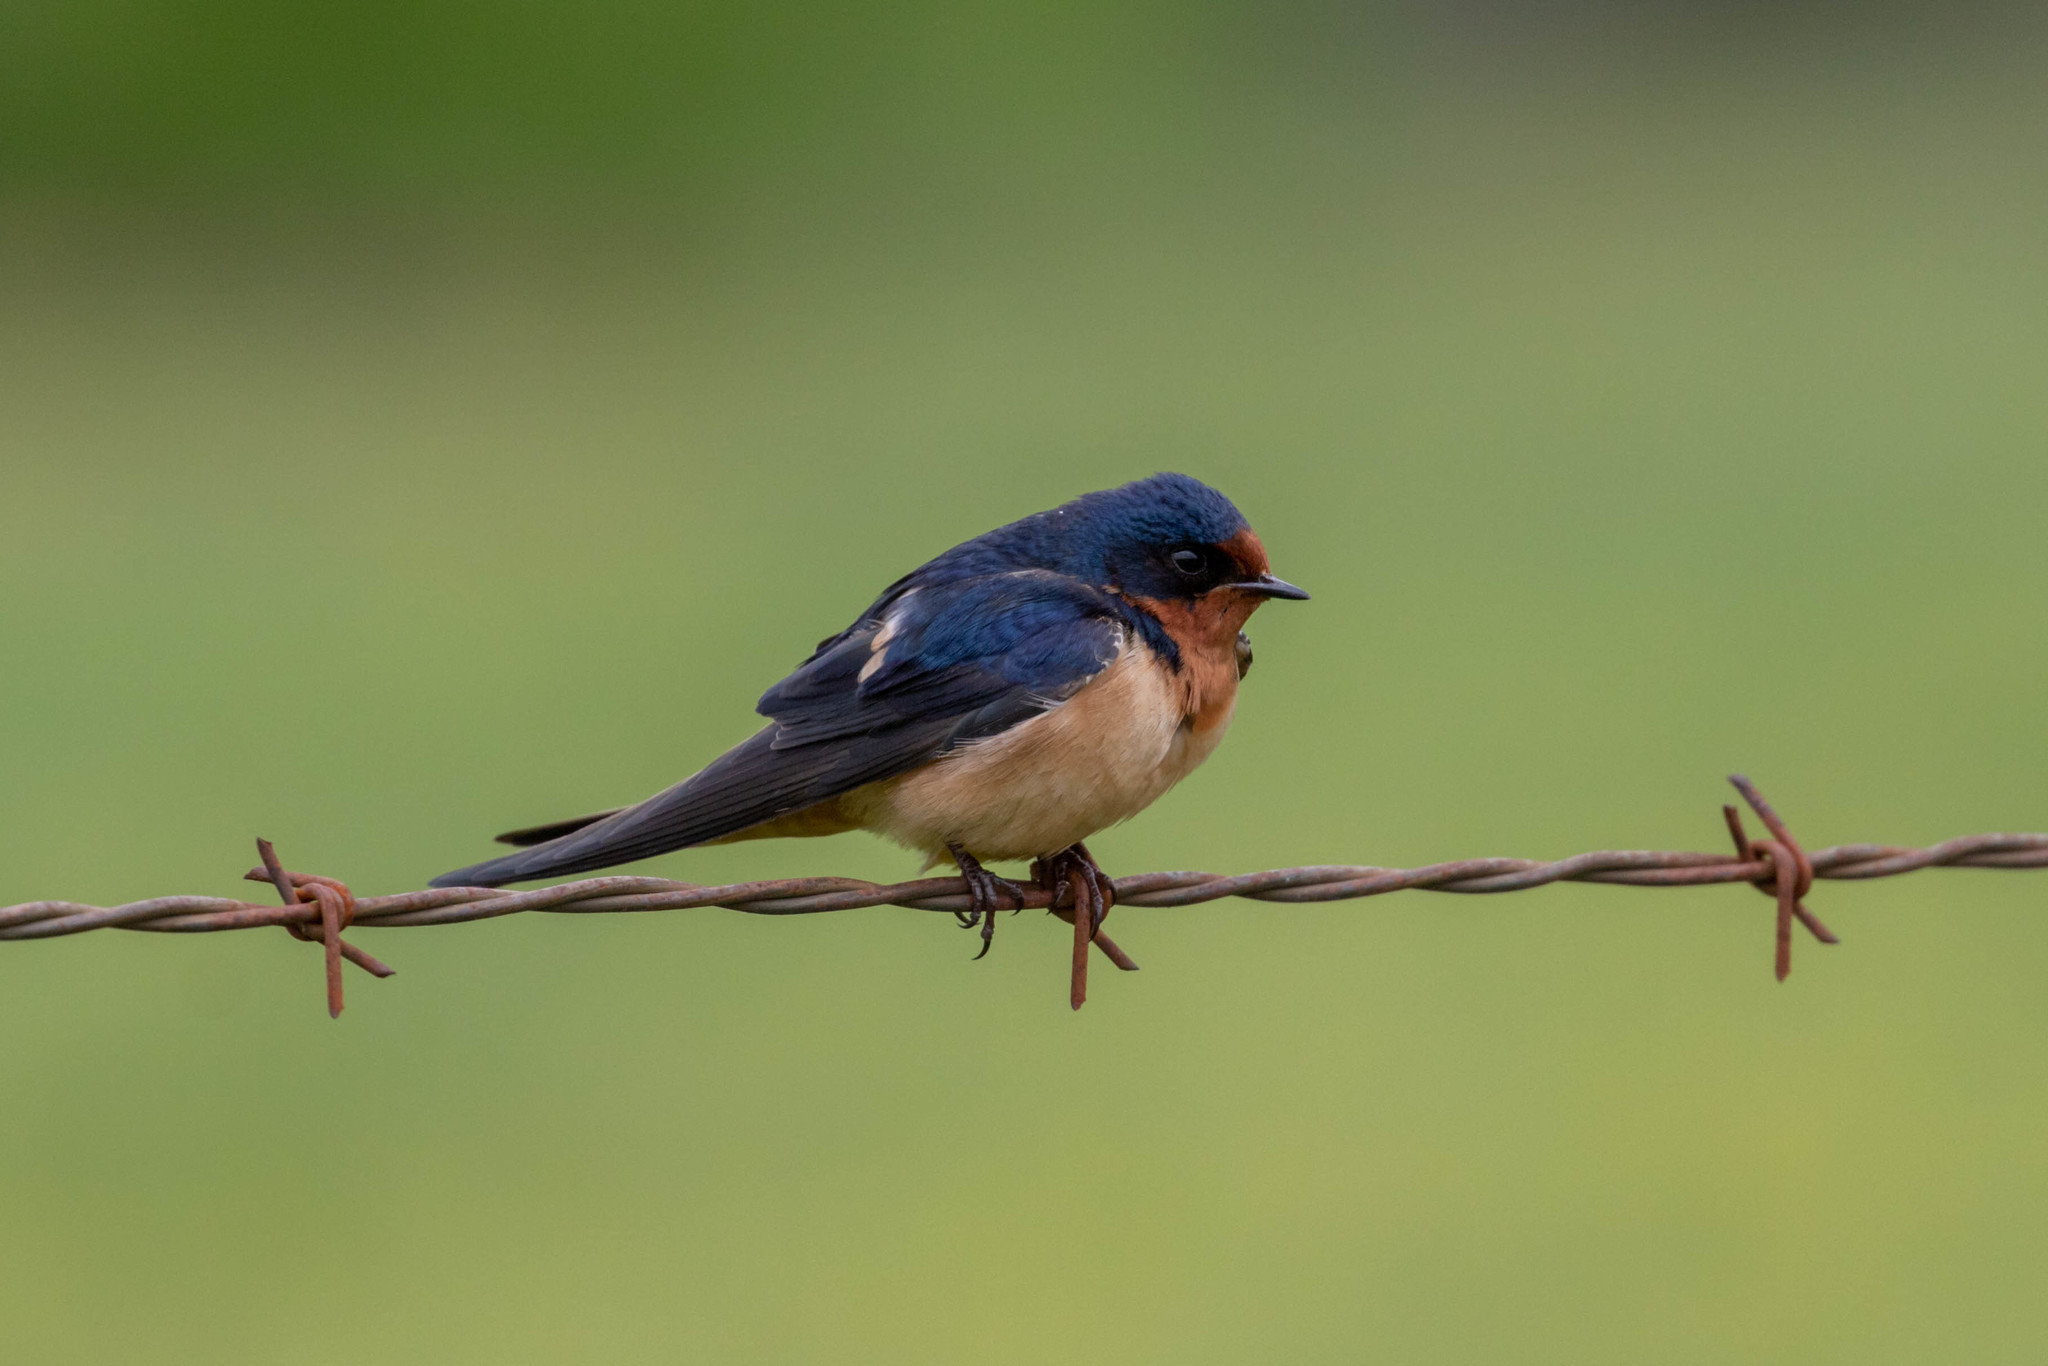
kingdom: Animalia
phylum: Chordata
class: Aves
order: Passeriformes
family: Hirundinidae
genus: Hirundo
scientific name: Hirundo rustica
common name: Barn swallow
